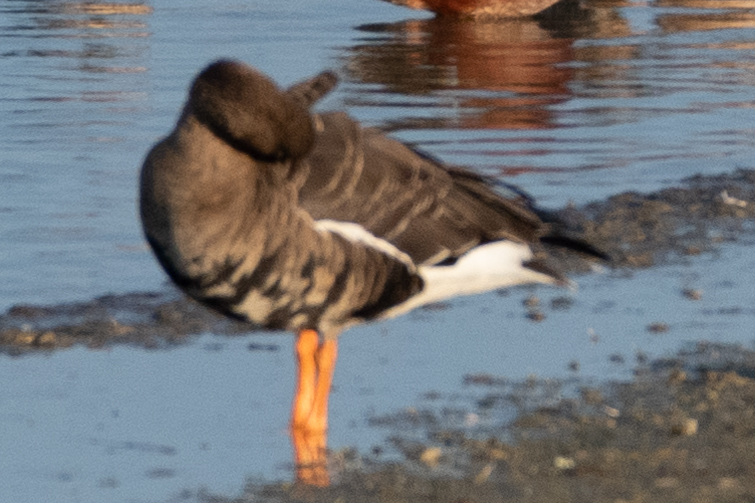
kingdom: Animalia
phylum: Chordata
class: Aves
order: Anseriformes
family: Anatidae
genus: Anser
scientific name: Anser albifrons
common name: Greater white-fronted goose
